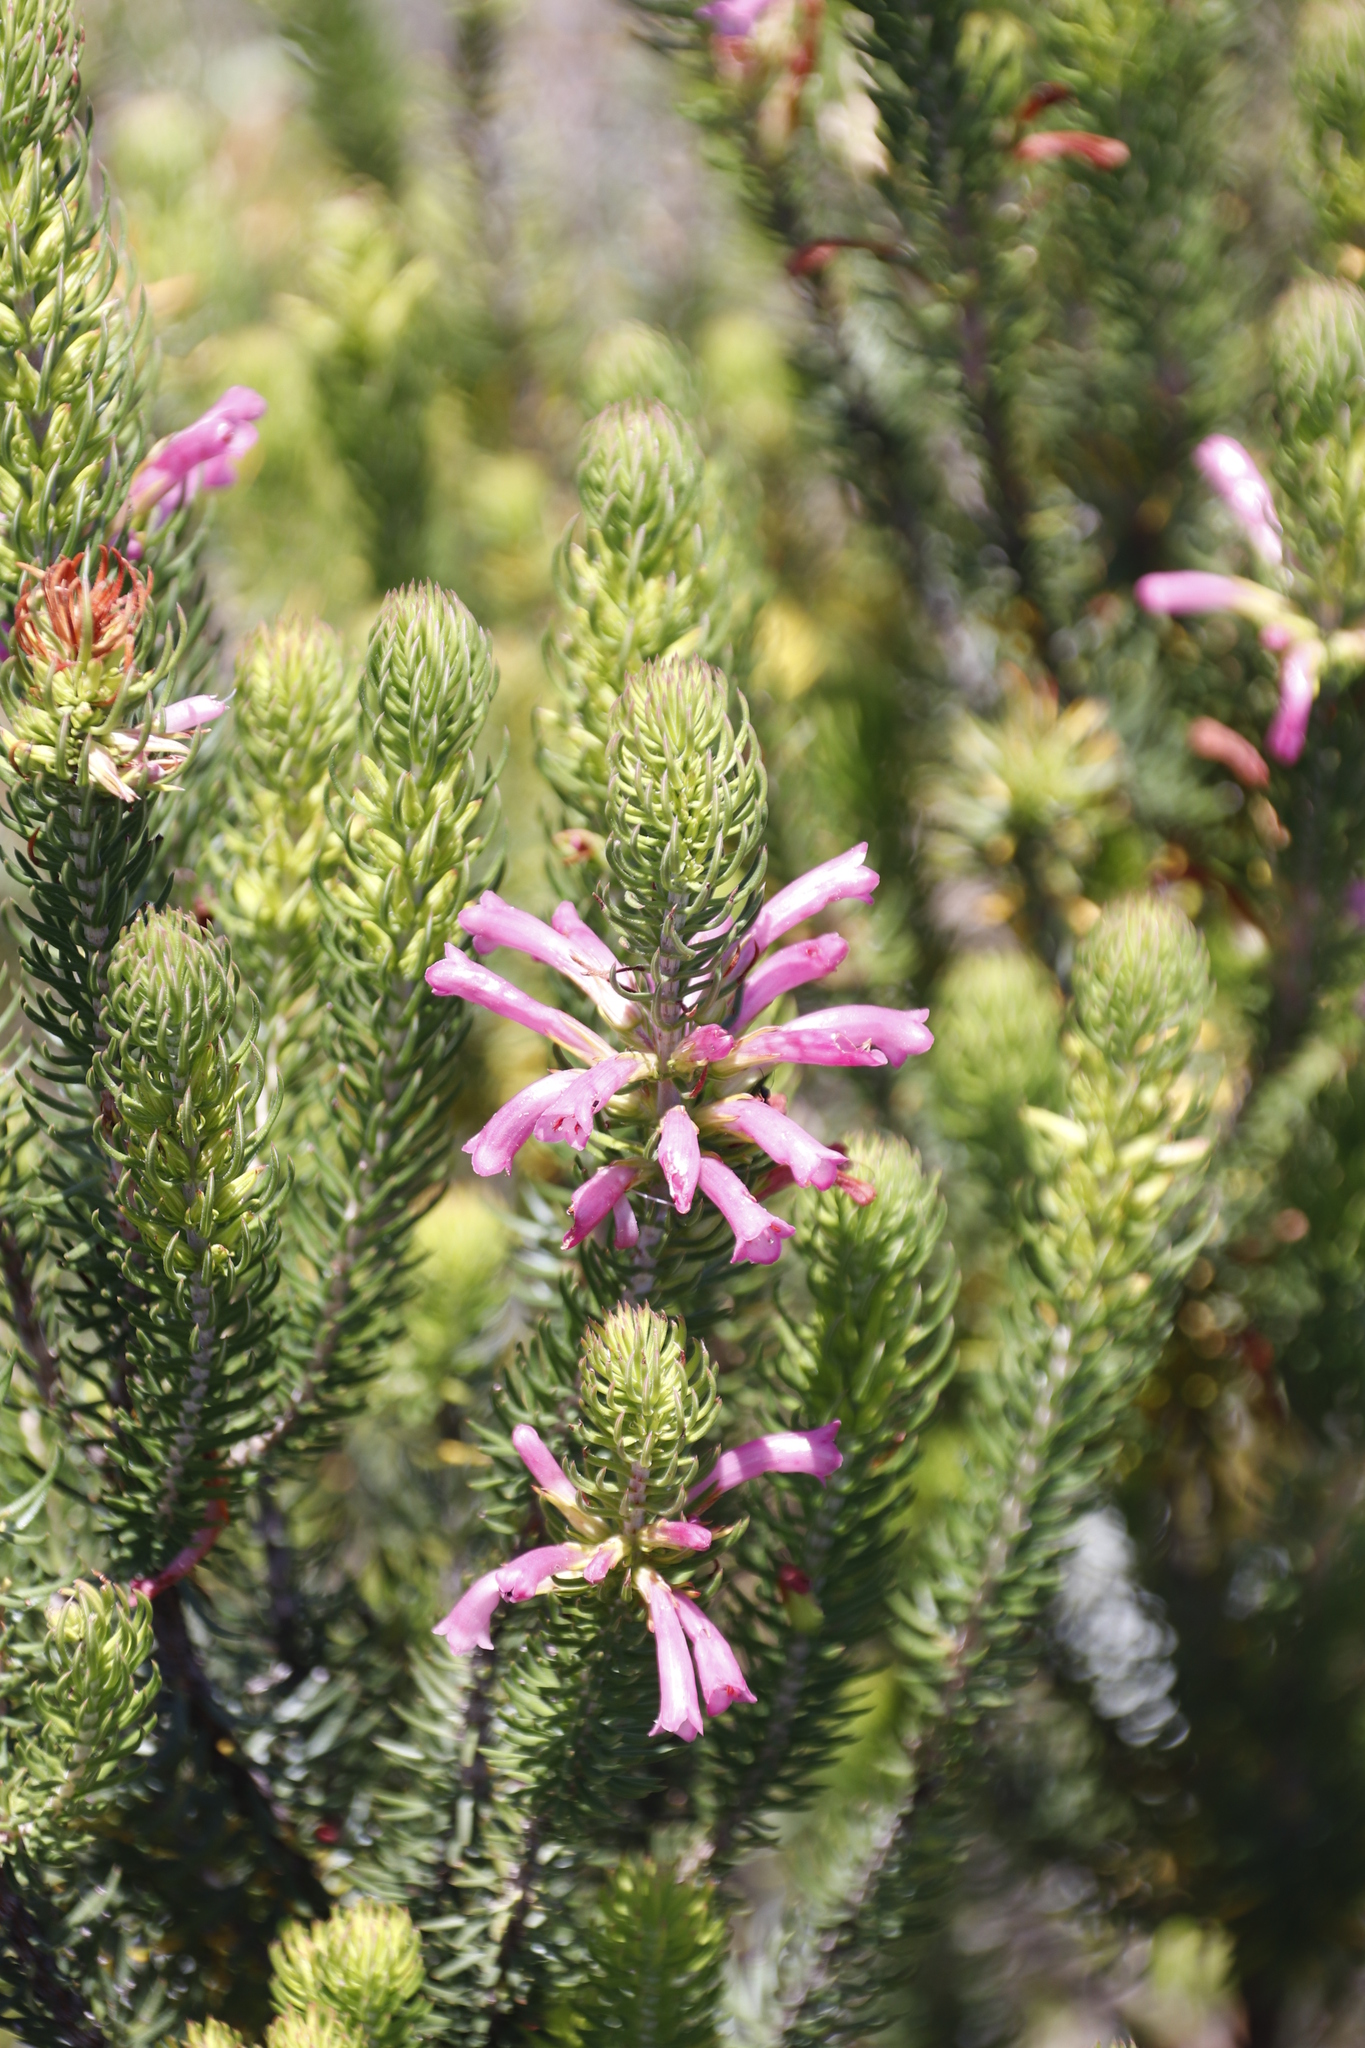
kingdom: Plantae
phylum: Tracheophyta
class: Magnoliopsida
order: Ericales
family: Ericaceae
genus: Erica
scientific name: Erica abietina
